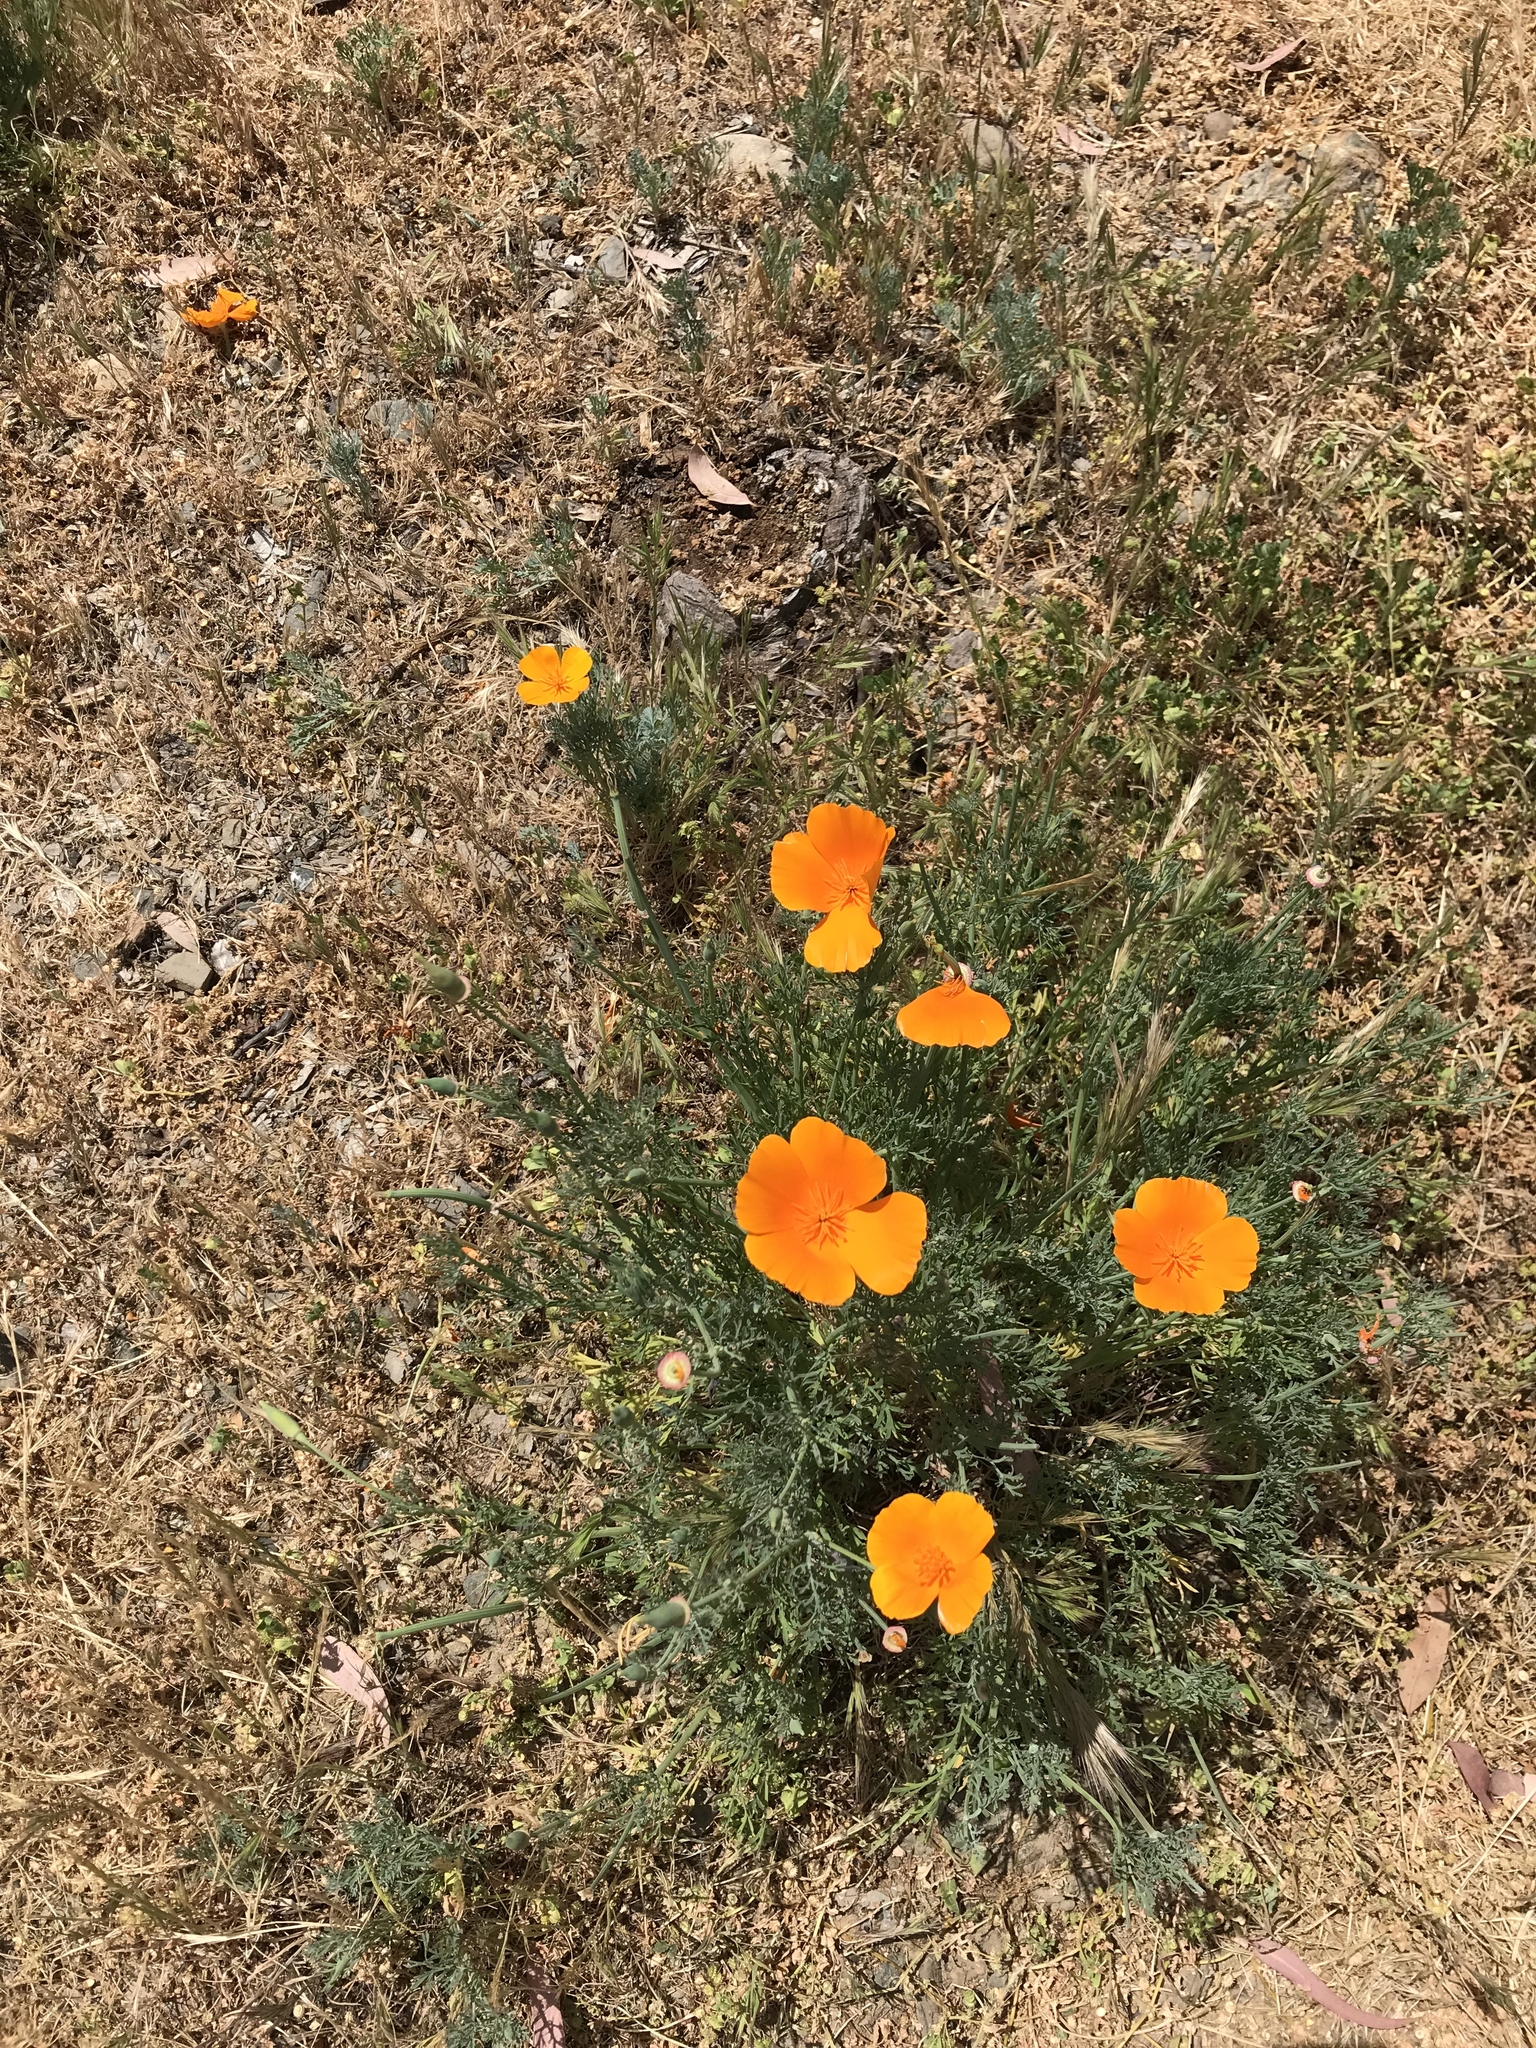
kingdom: Plantae
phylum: Tracheophyta
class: Magnoliopsida
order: Ranunculales
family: Papaveraceae
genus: Eschscholzia
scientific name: Eschscholzia californica
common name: California poppy
